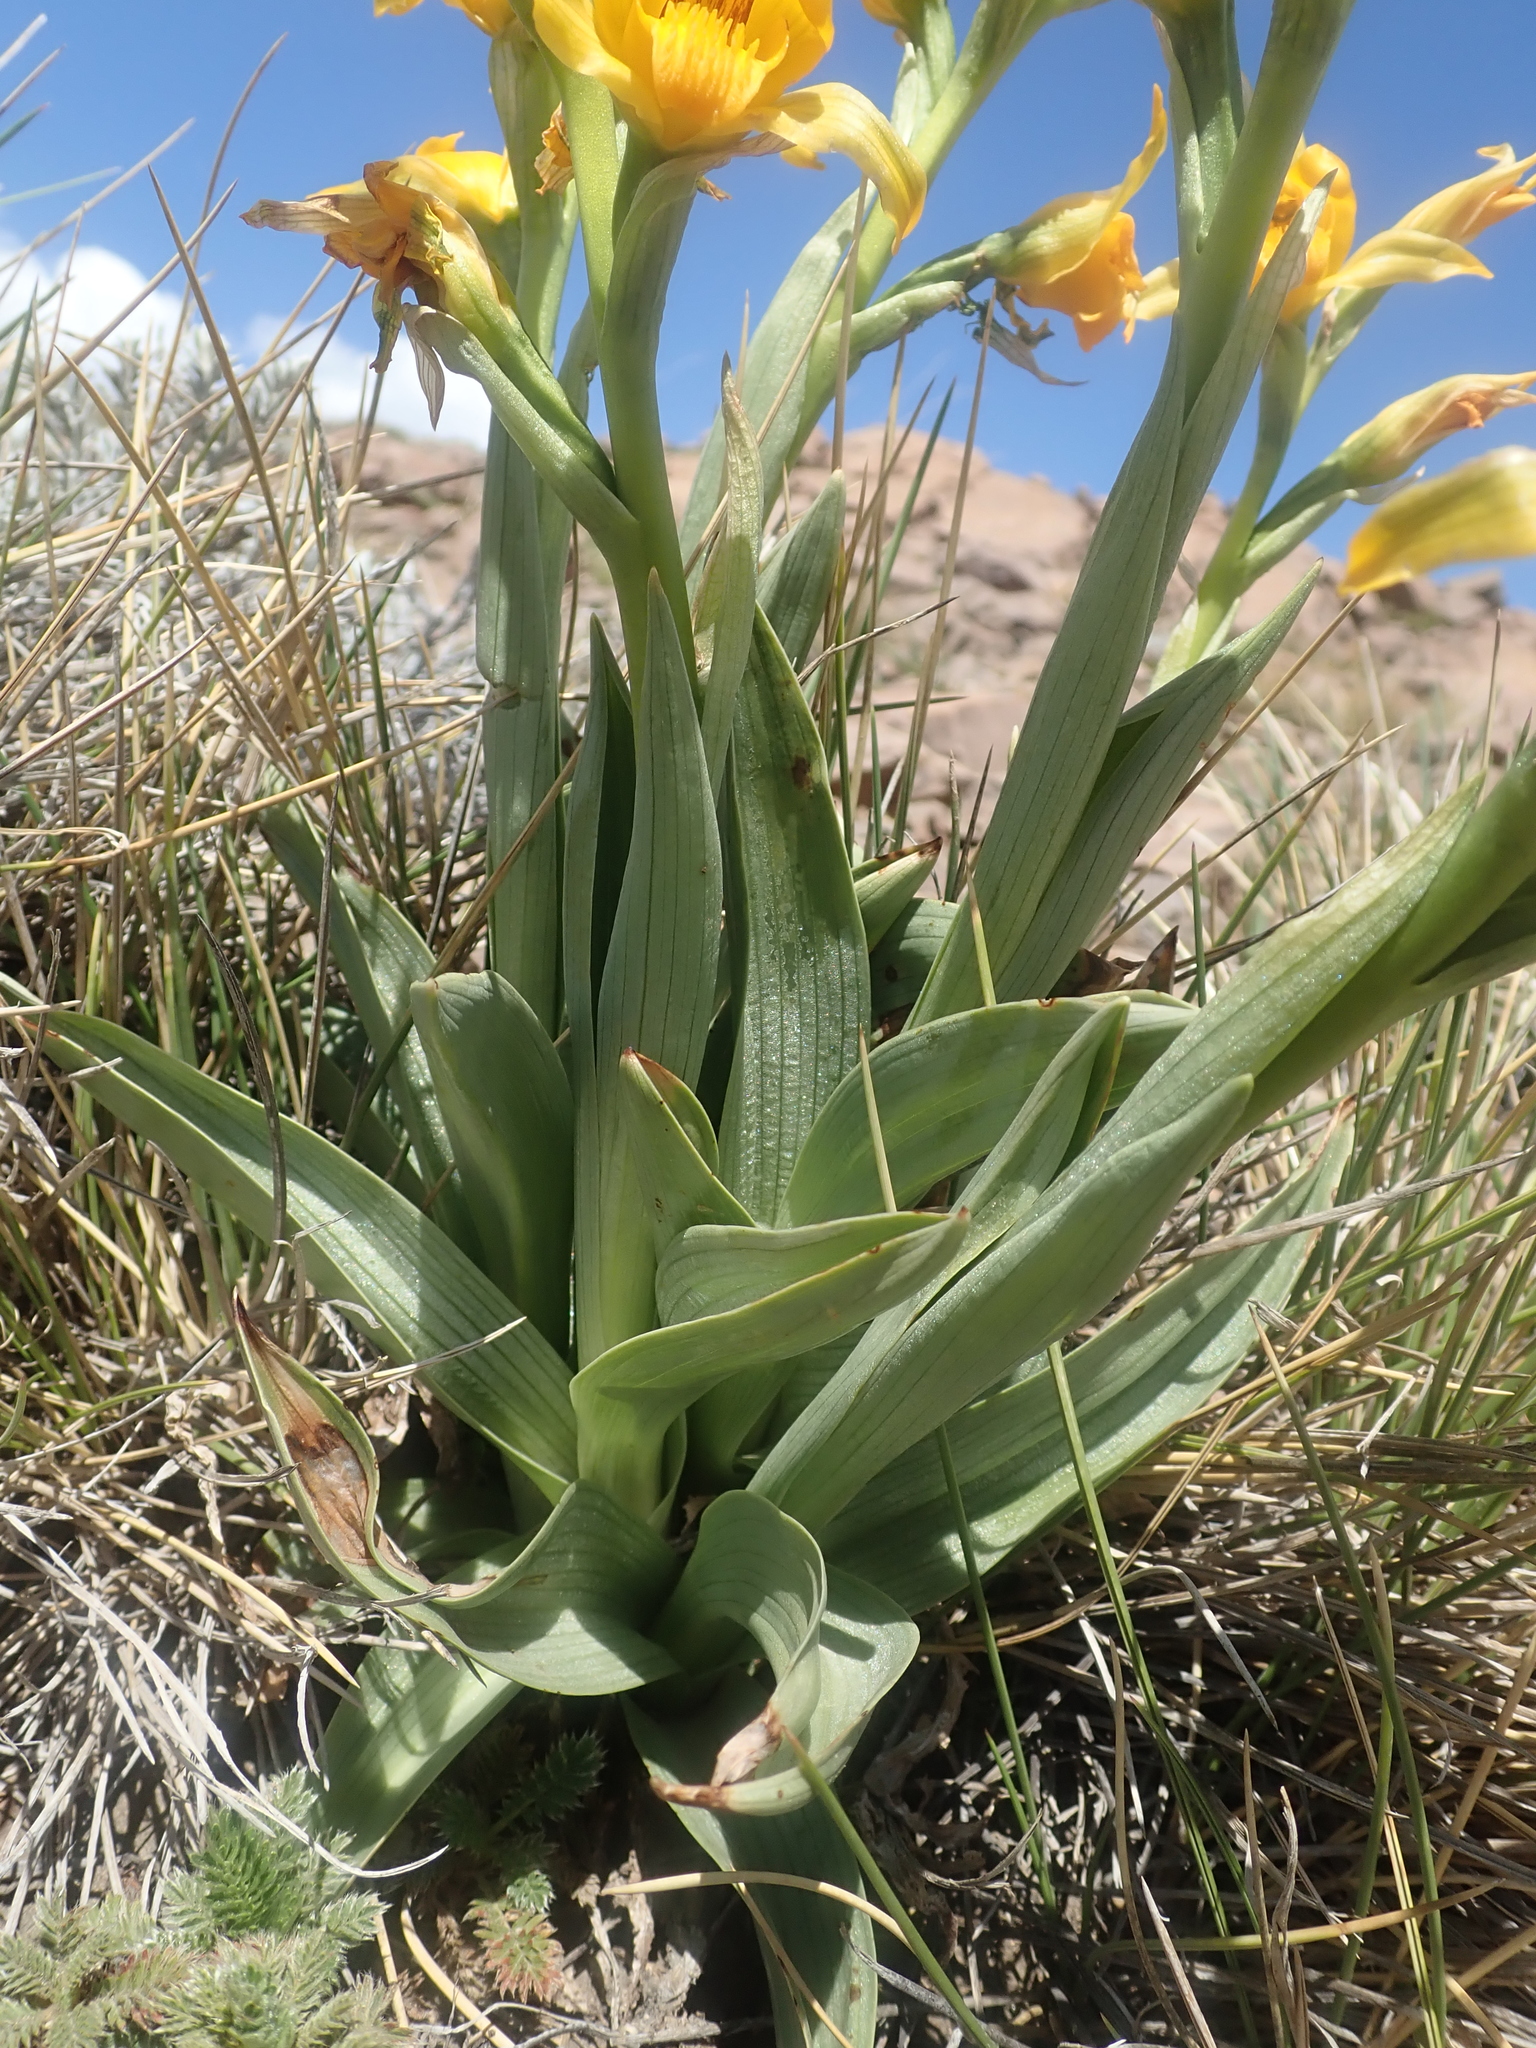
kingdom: Plantae
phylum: Tracheophyta
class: Liliopsida
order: Asparagales
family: Orchidaceae
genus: Chloraea
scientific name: Chloraea alpina
